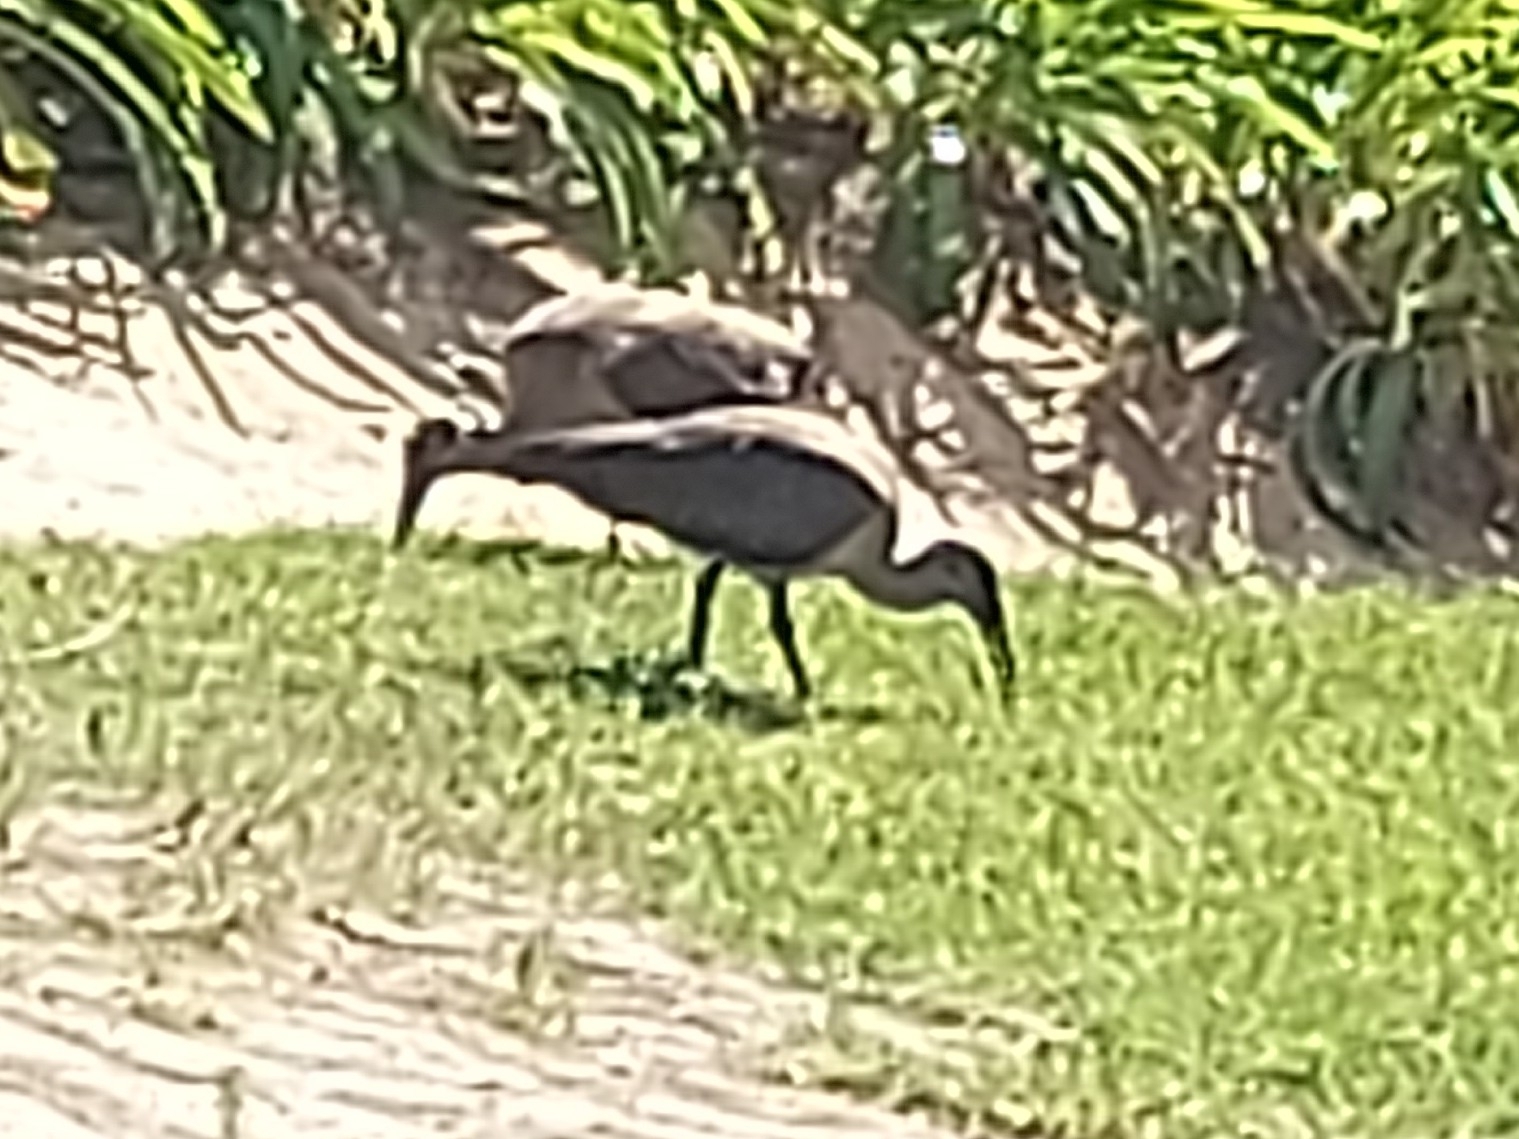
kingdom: Animalia
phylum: Chordata
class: Aves
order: Pelecaniformes
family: Threskiornithidae
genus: Bostrychia
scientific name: Bostrychia hagedash
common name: Hadada ibis
